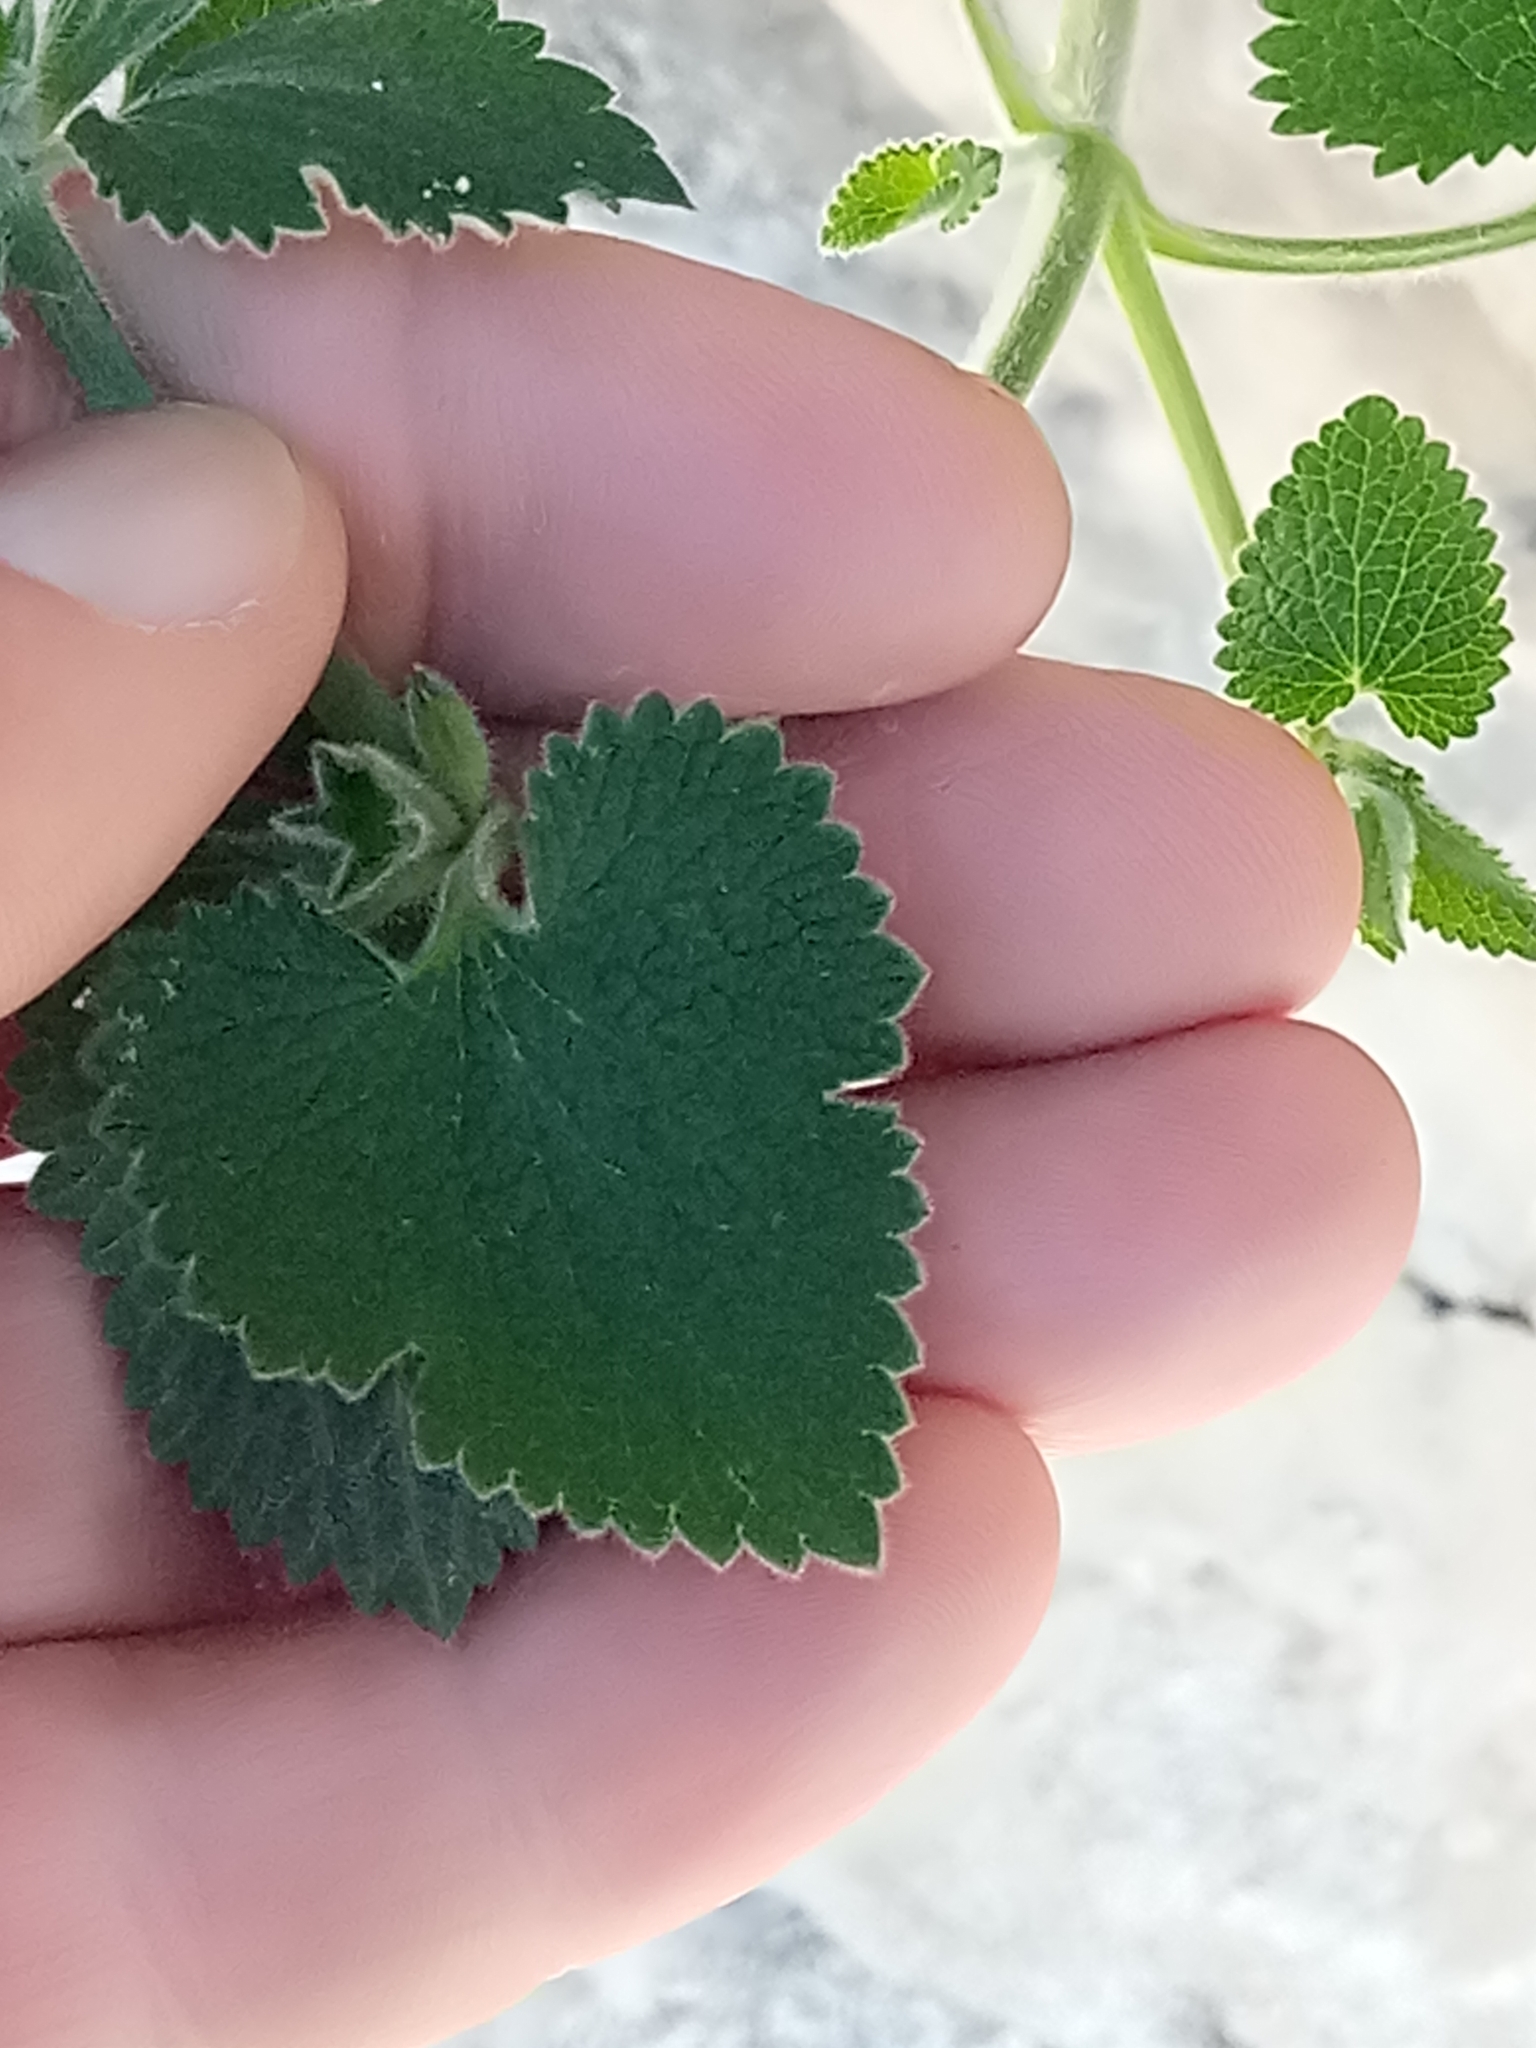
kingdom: Plantae
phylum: Tracheophyta
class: Magnoliopsida
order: Lamiales
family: Lamiaceae
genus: Stachys
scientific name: Stachys circinata
